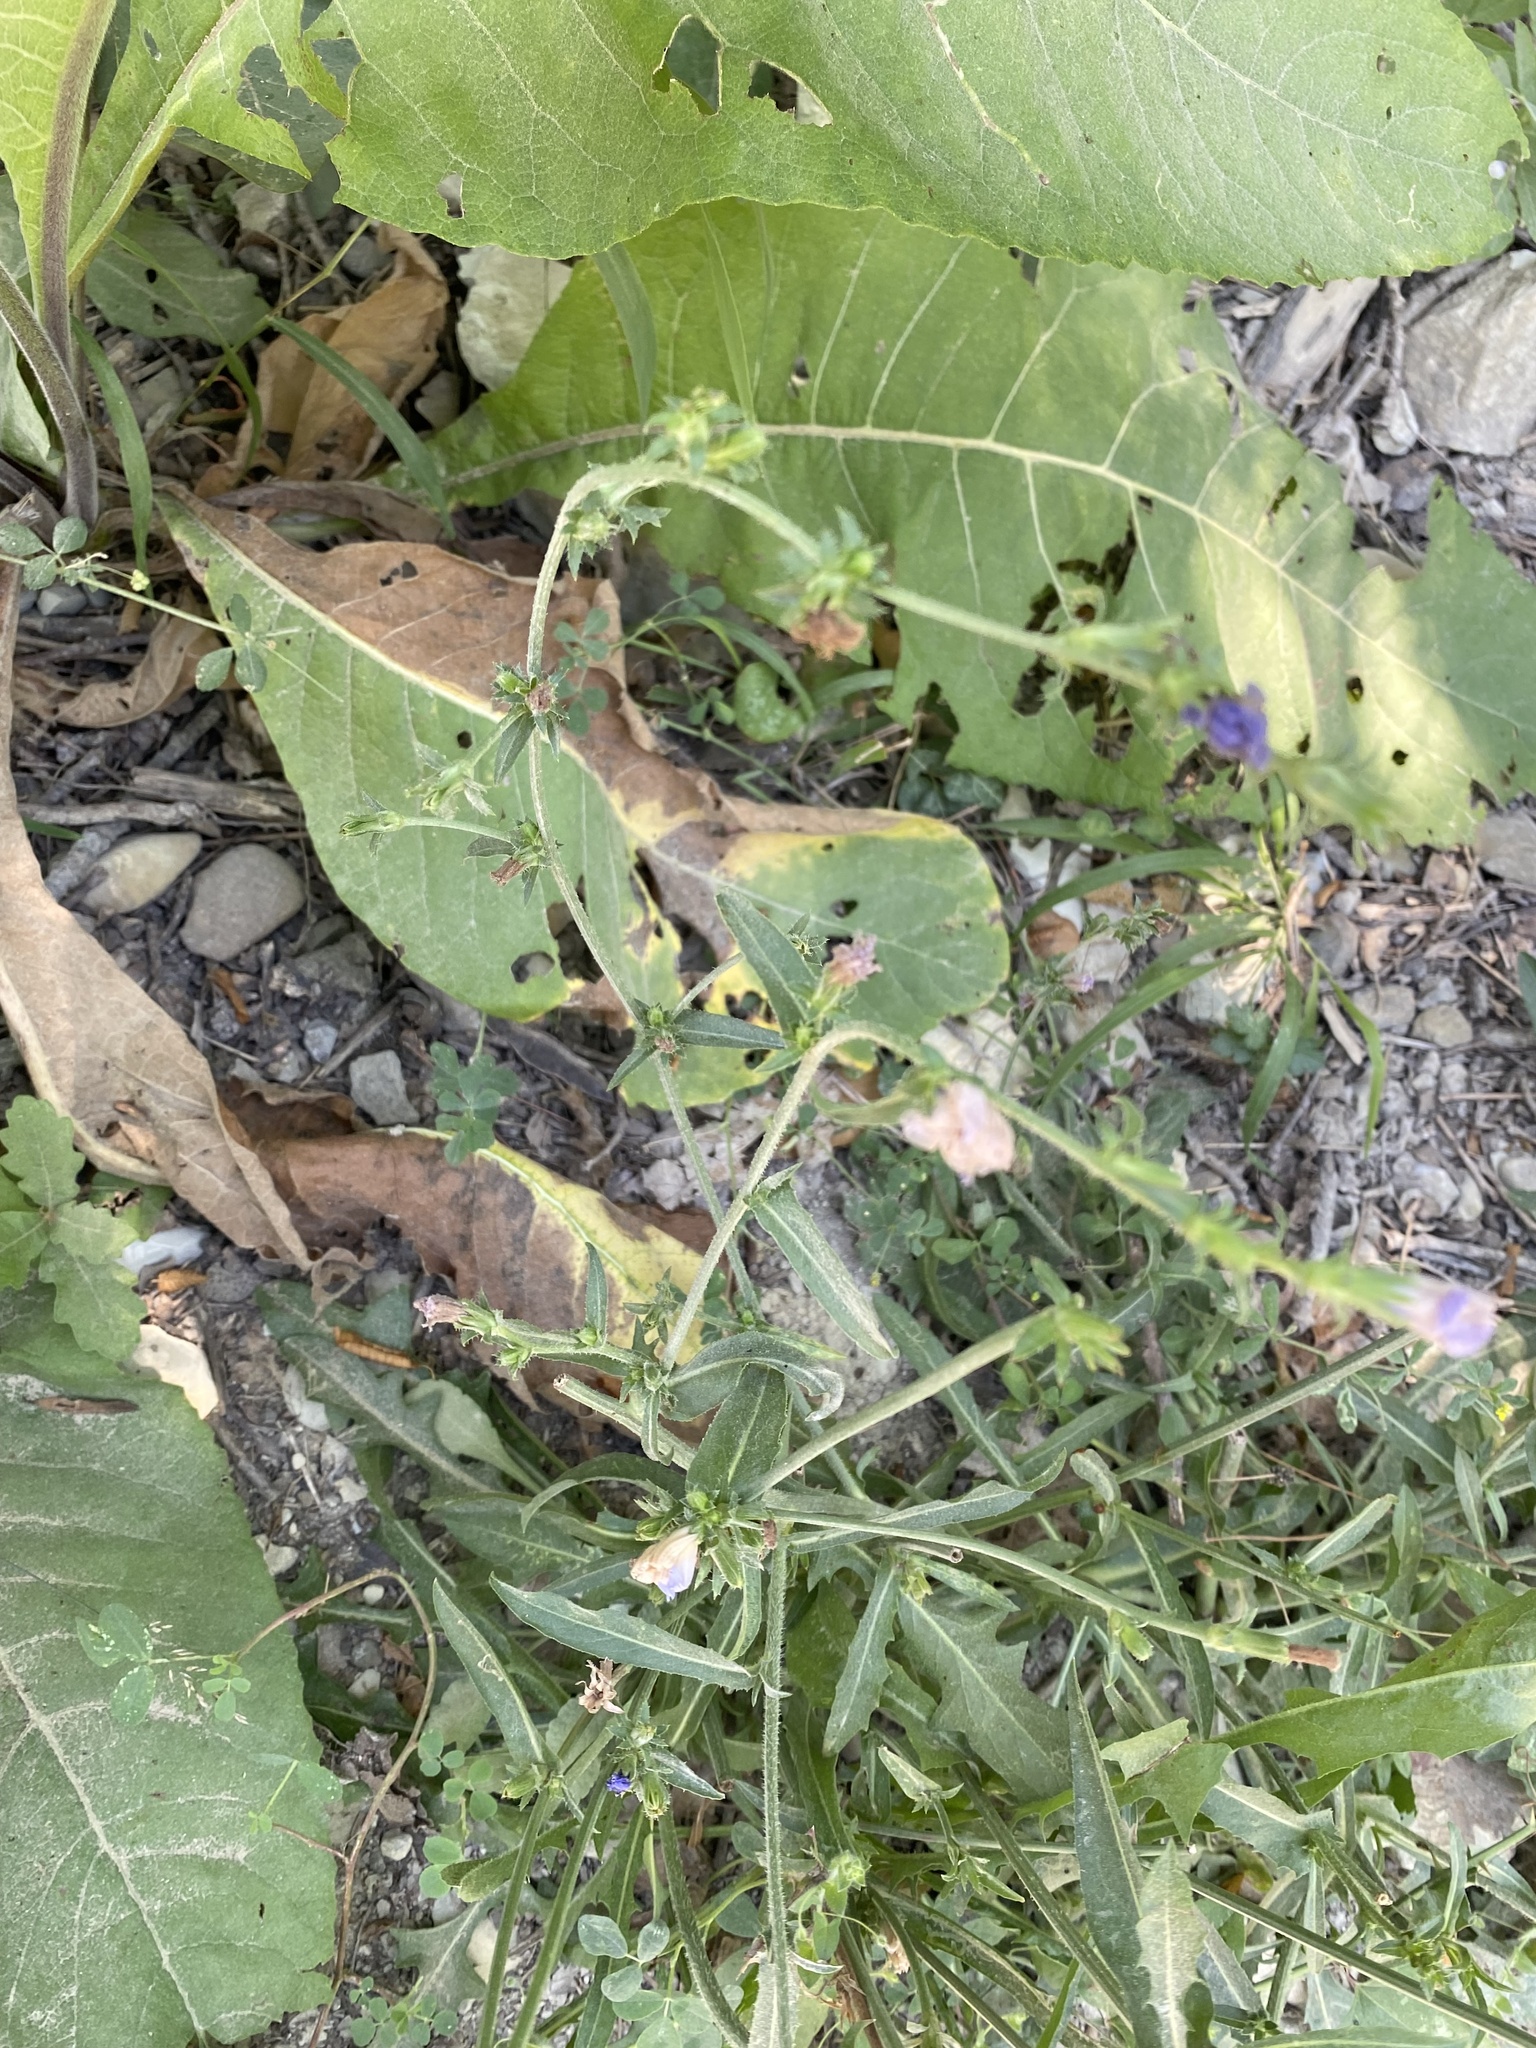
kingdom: Plantae
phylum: Tracheophyta
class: Magnoliopsida
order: Asterales
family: Asteraceae
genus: Cichorium
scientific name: Cichorium intybus
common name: Chicory
